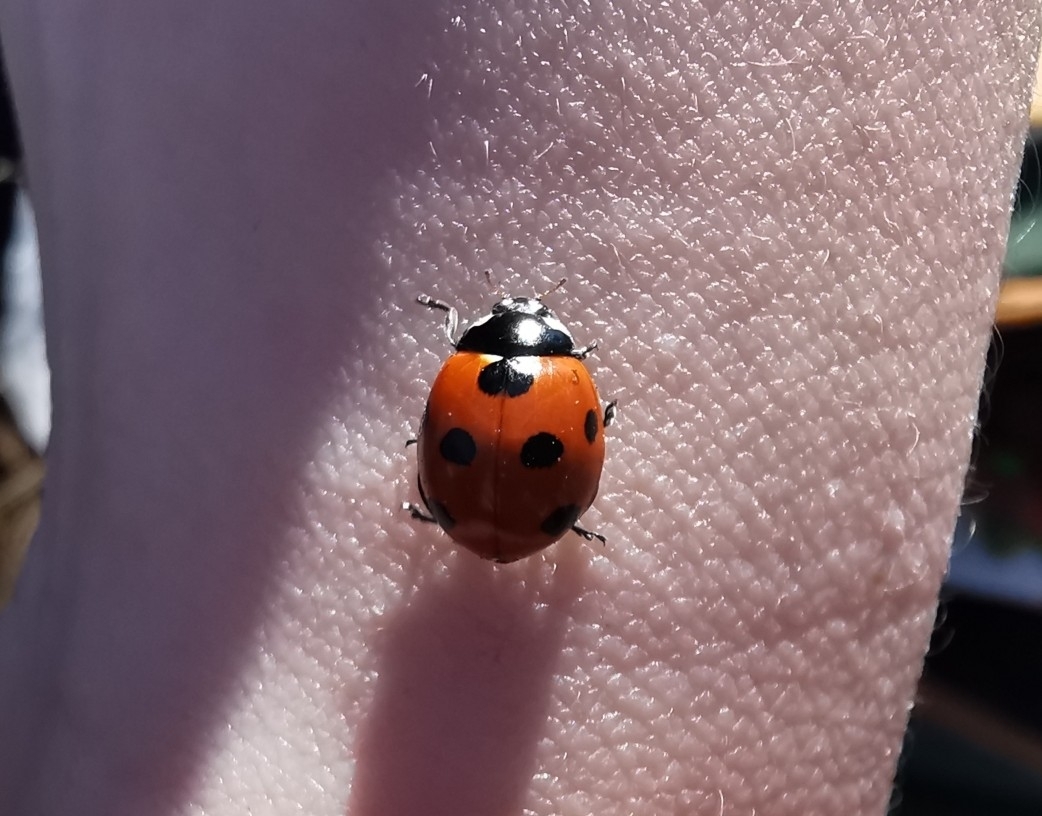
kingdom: Animalia
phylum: Arthropoda
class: Insecta
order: Coleoptera
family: Coccinellidae
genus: Coccinella
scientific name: Coccinella septempunctata
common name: Sevenspotted lady beetle
